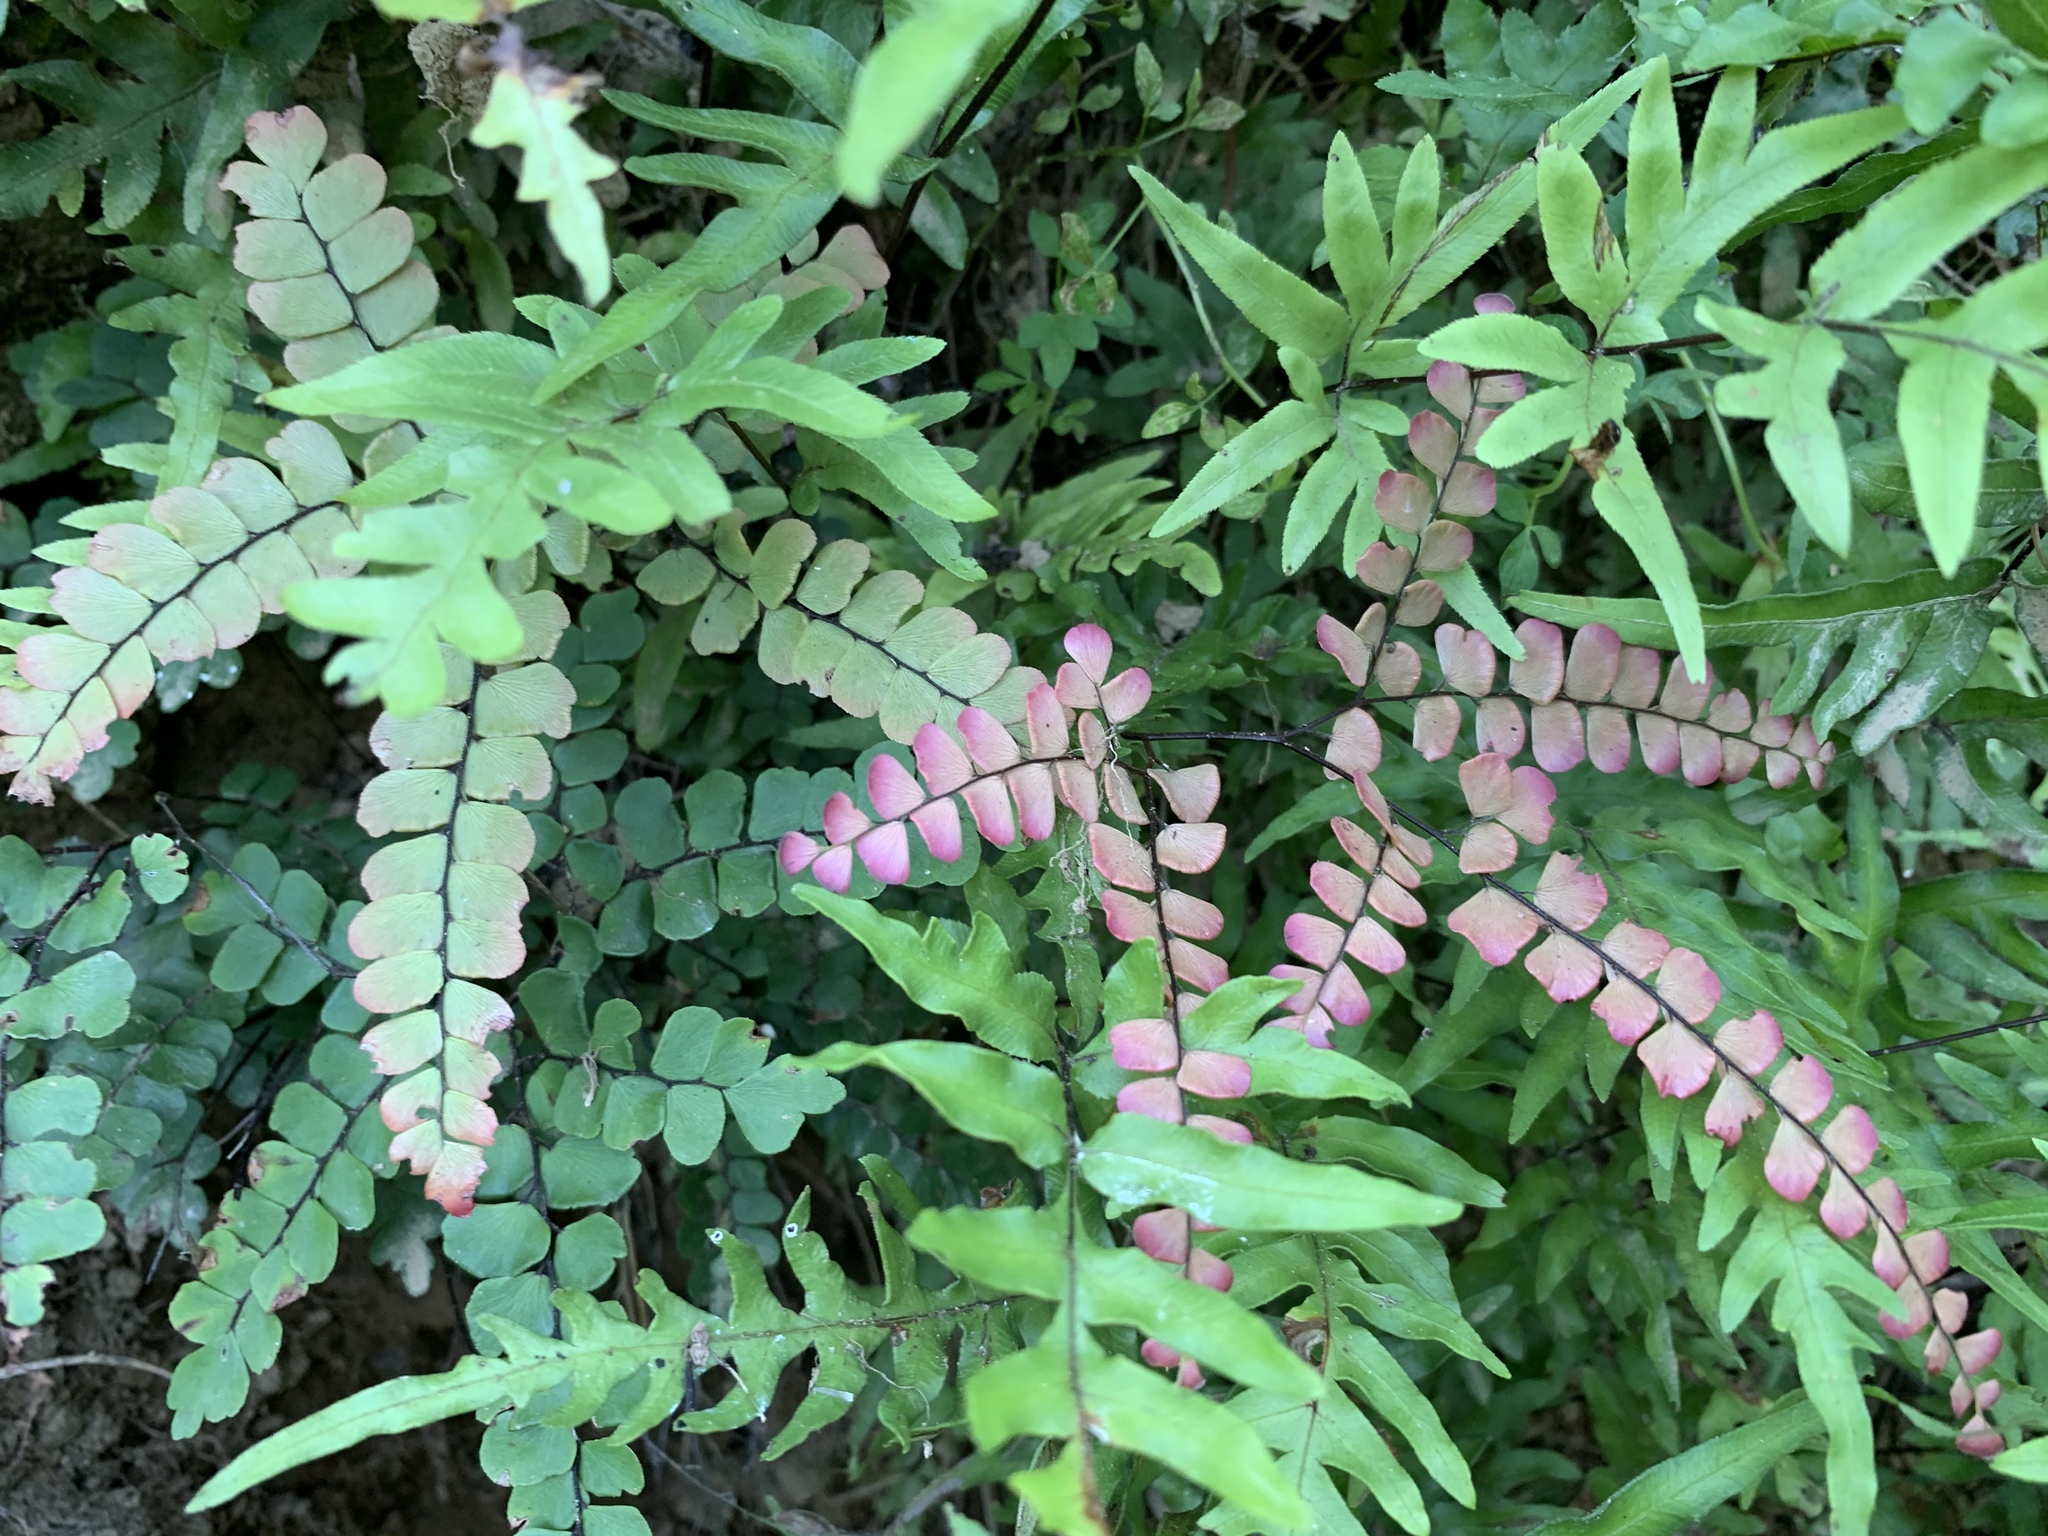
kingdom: Plantae
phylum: Tracheophyta
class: Polypodiopsida
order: Polypodiales
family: Pteridaceae
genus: Adiantum
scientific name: Adiantum flabellulatum
